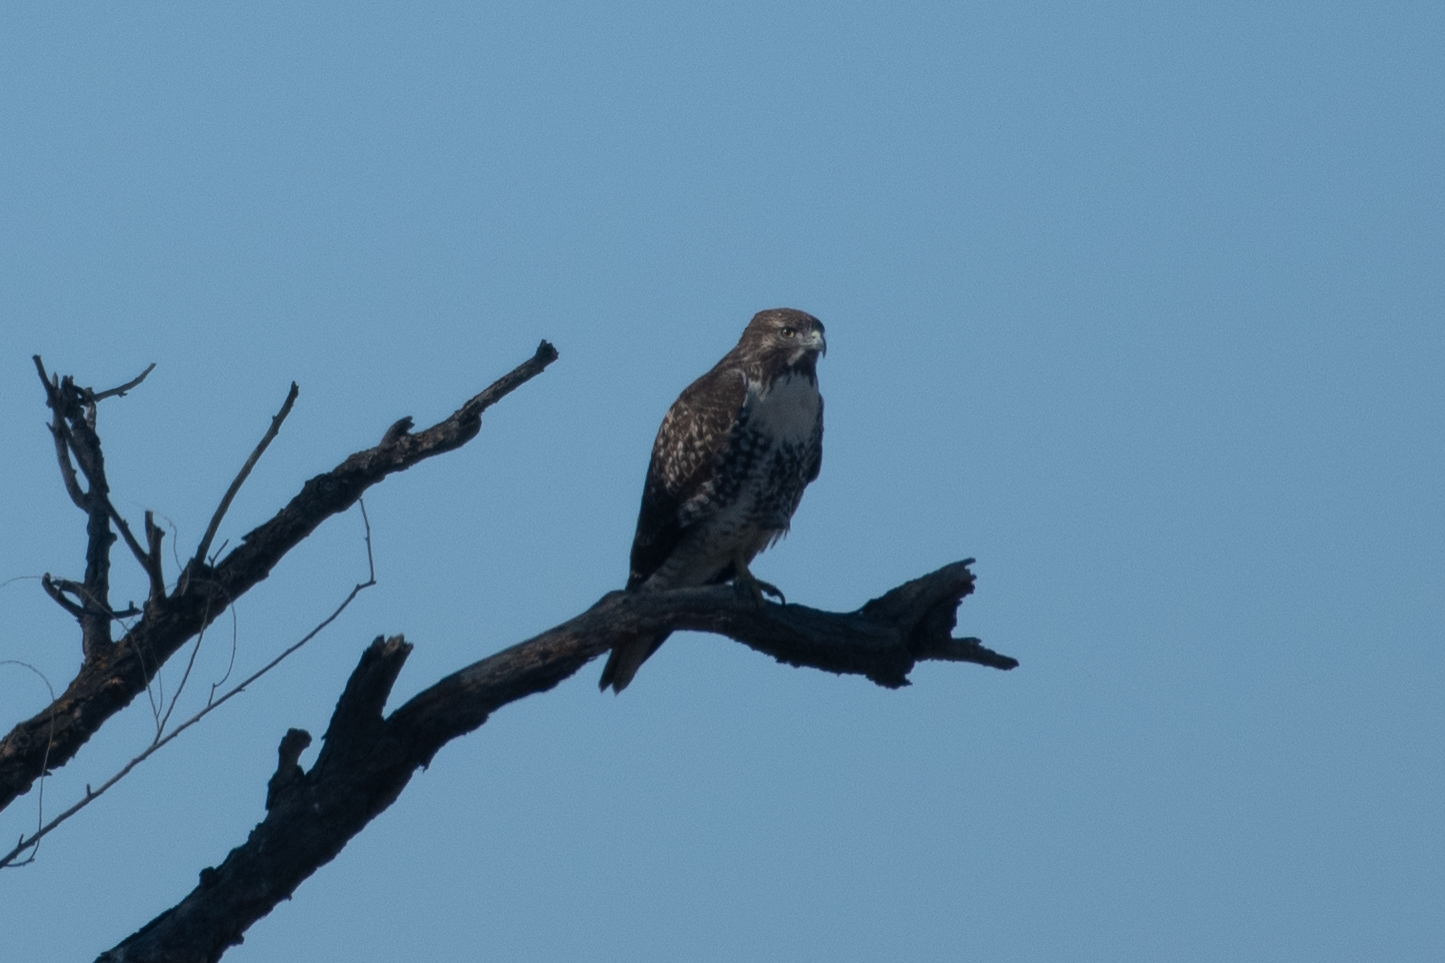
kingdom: Animalia
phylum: Chordata
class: Aves
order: Accipitriformes
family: Accipitridae
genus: Buteo
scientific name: Buteo jamaicensis
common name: Red-tailed hawk
